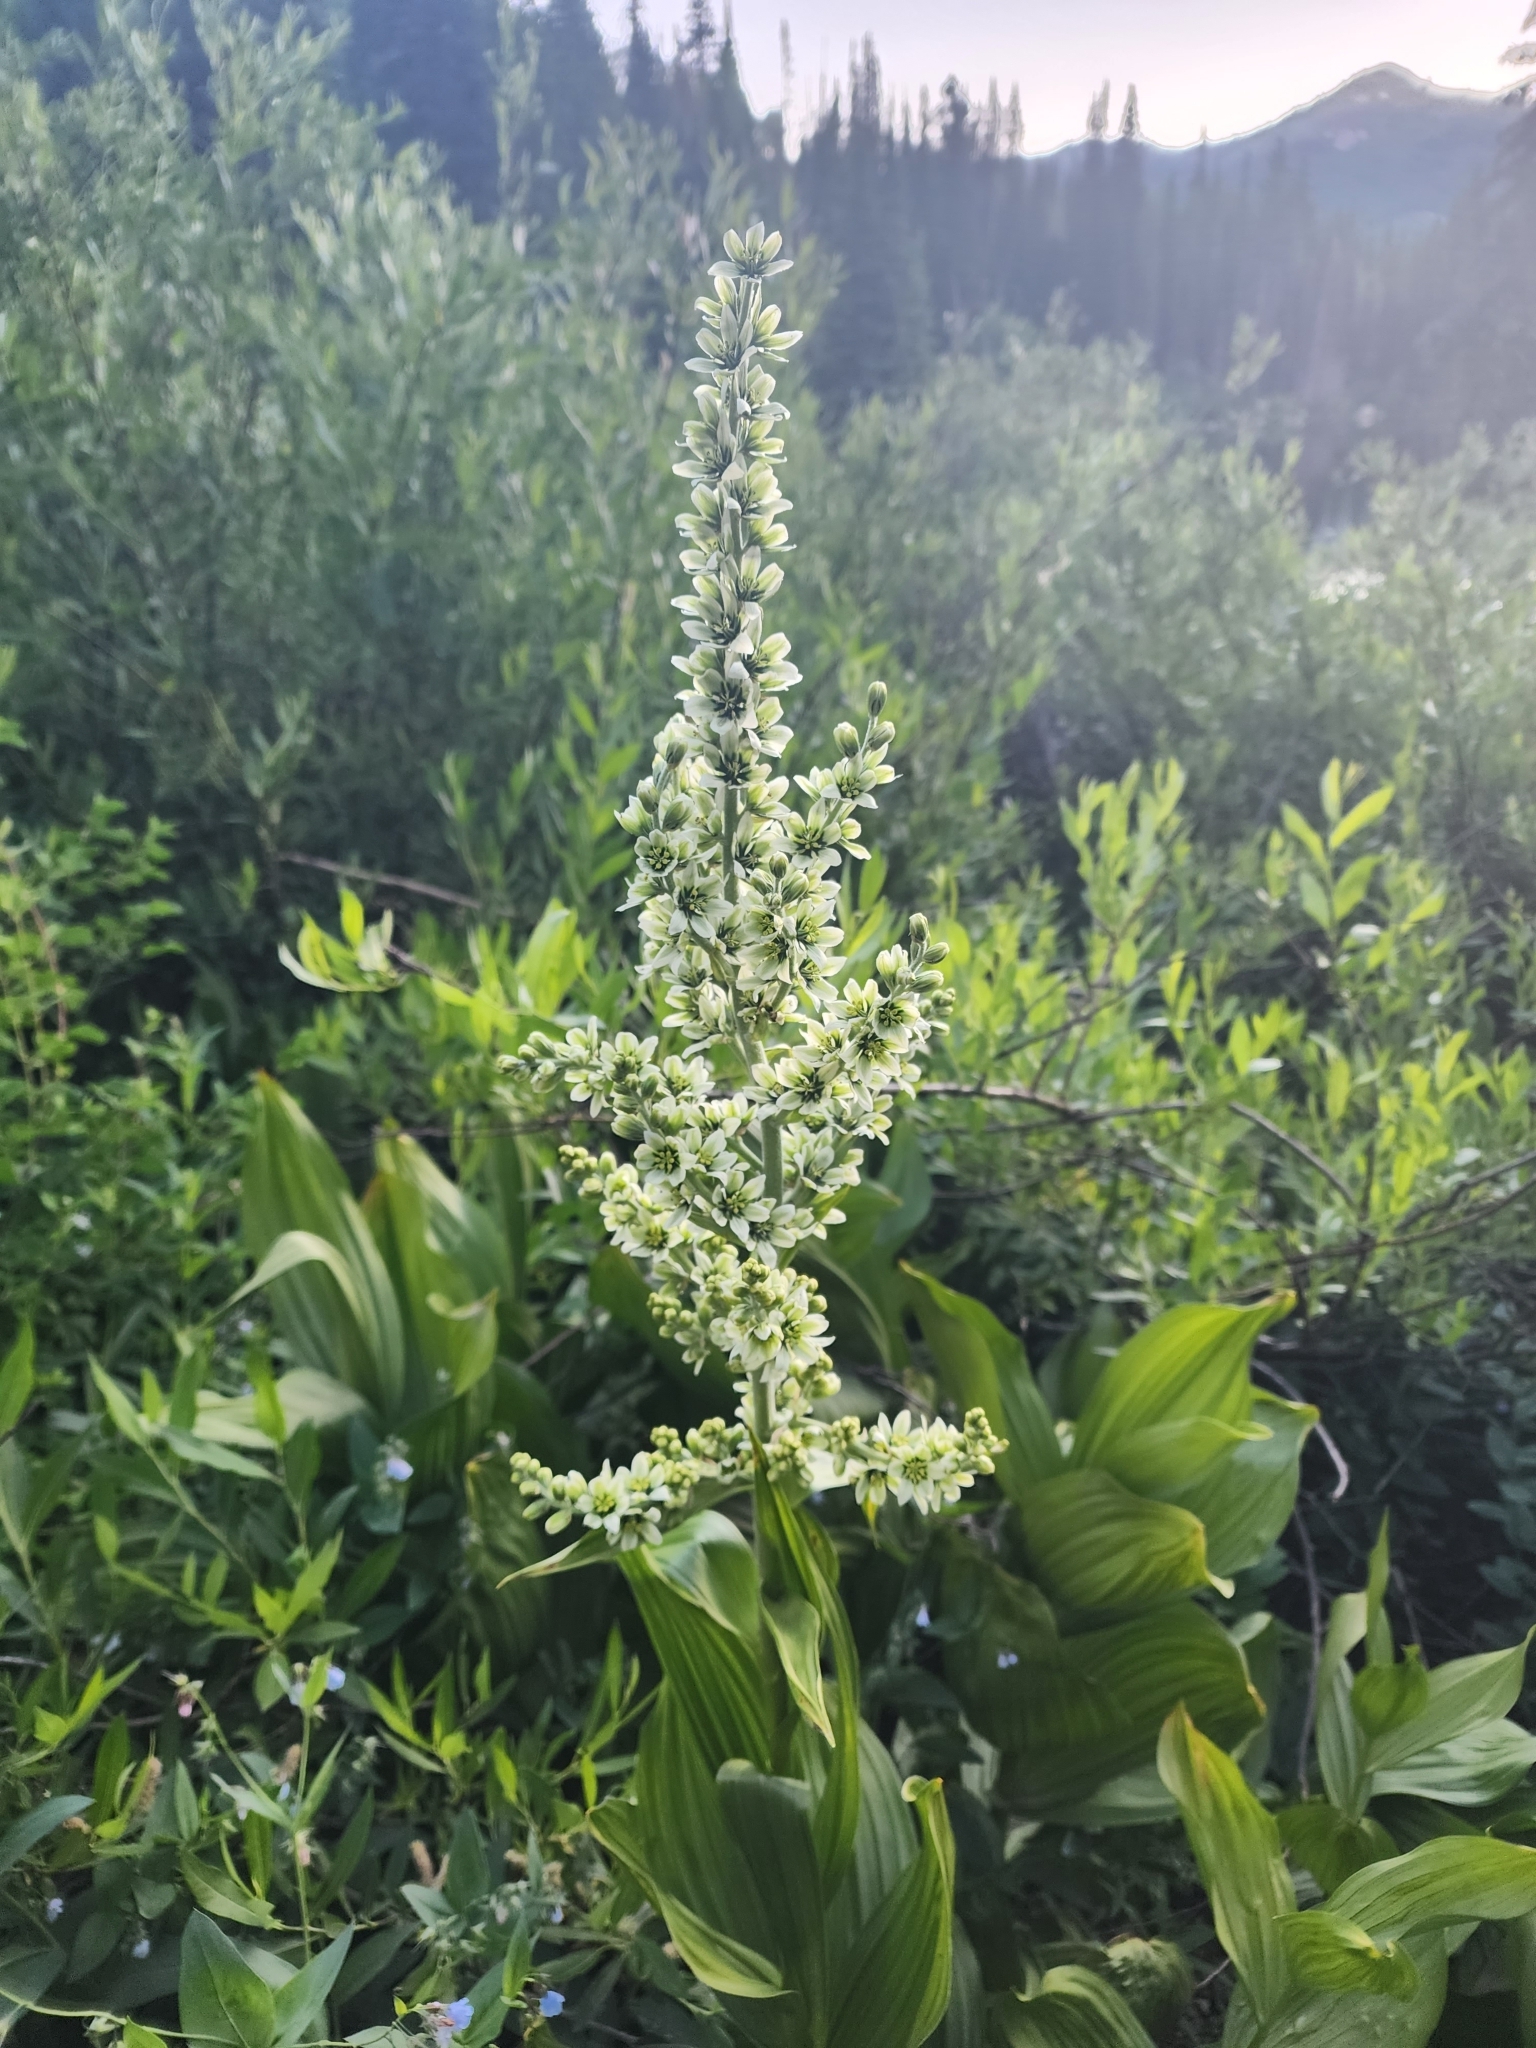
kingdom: Plantae
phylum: Tracheophyta
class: Liliopsida
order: Liliales
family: Melanthiaceae
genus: Veratrum
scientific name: Veratrum californicum
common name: California veratrum
